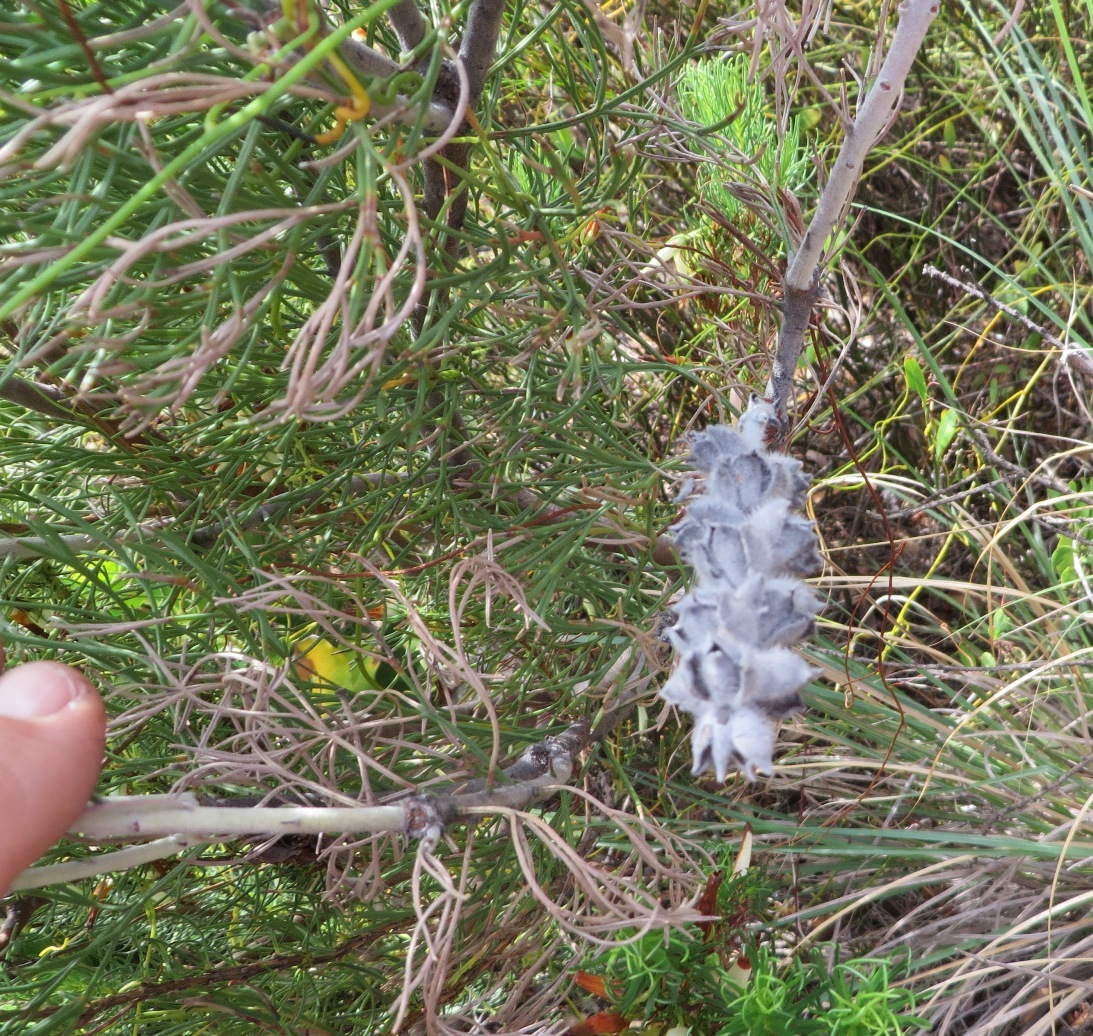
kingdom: Plantae
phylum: Tracheophyta
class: Magnoliopsida
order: Proteales
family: Proteaceae
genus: Paranomus
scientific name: Paranomus spicatus
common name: Kogelberg sceptre
